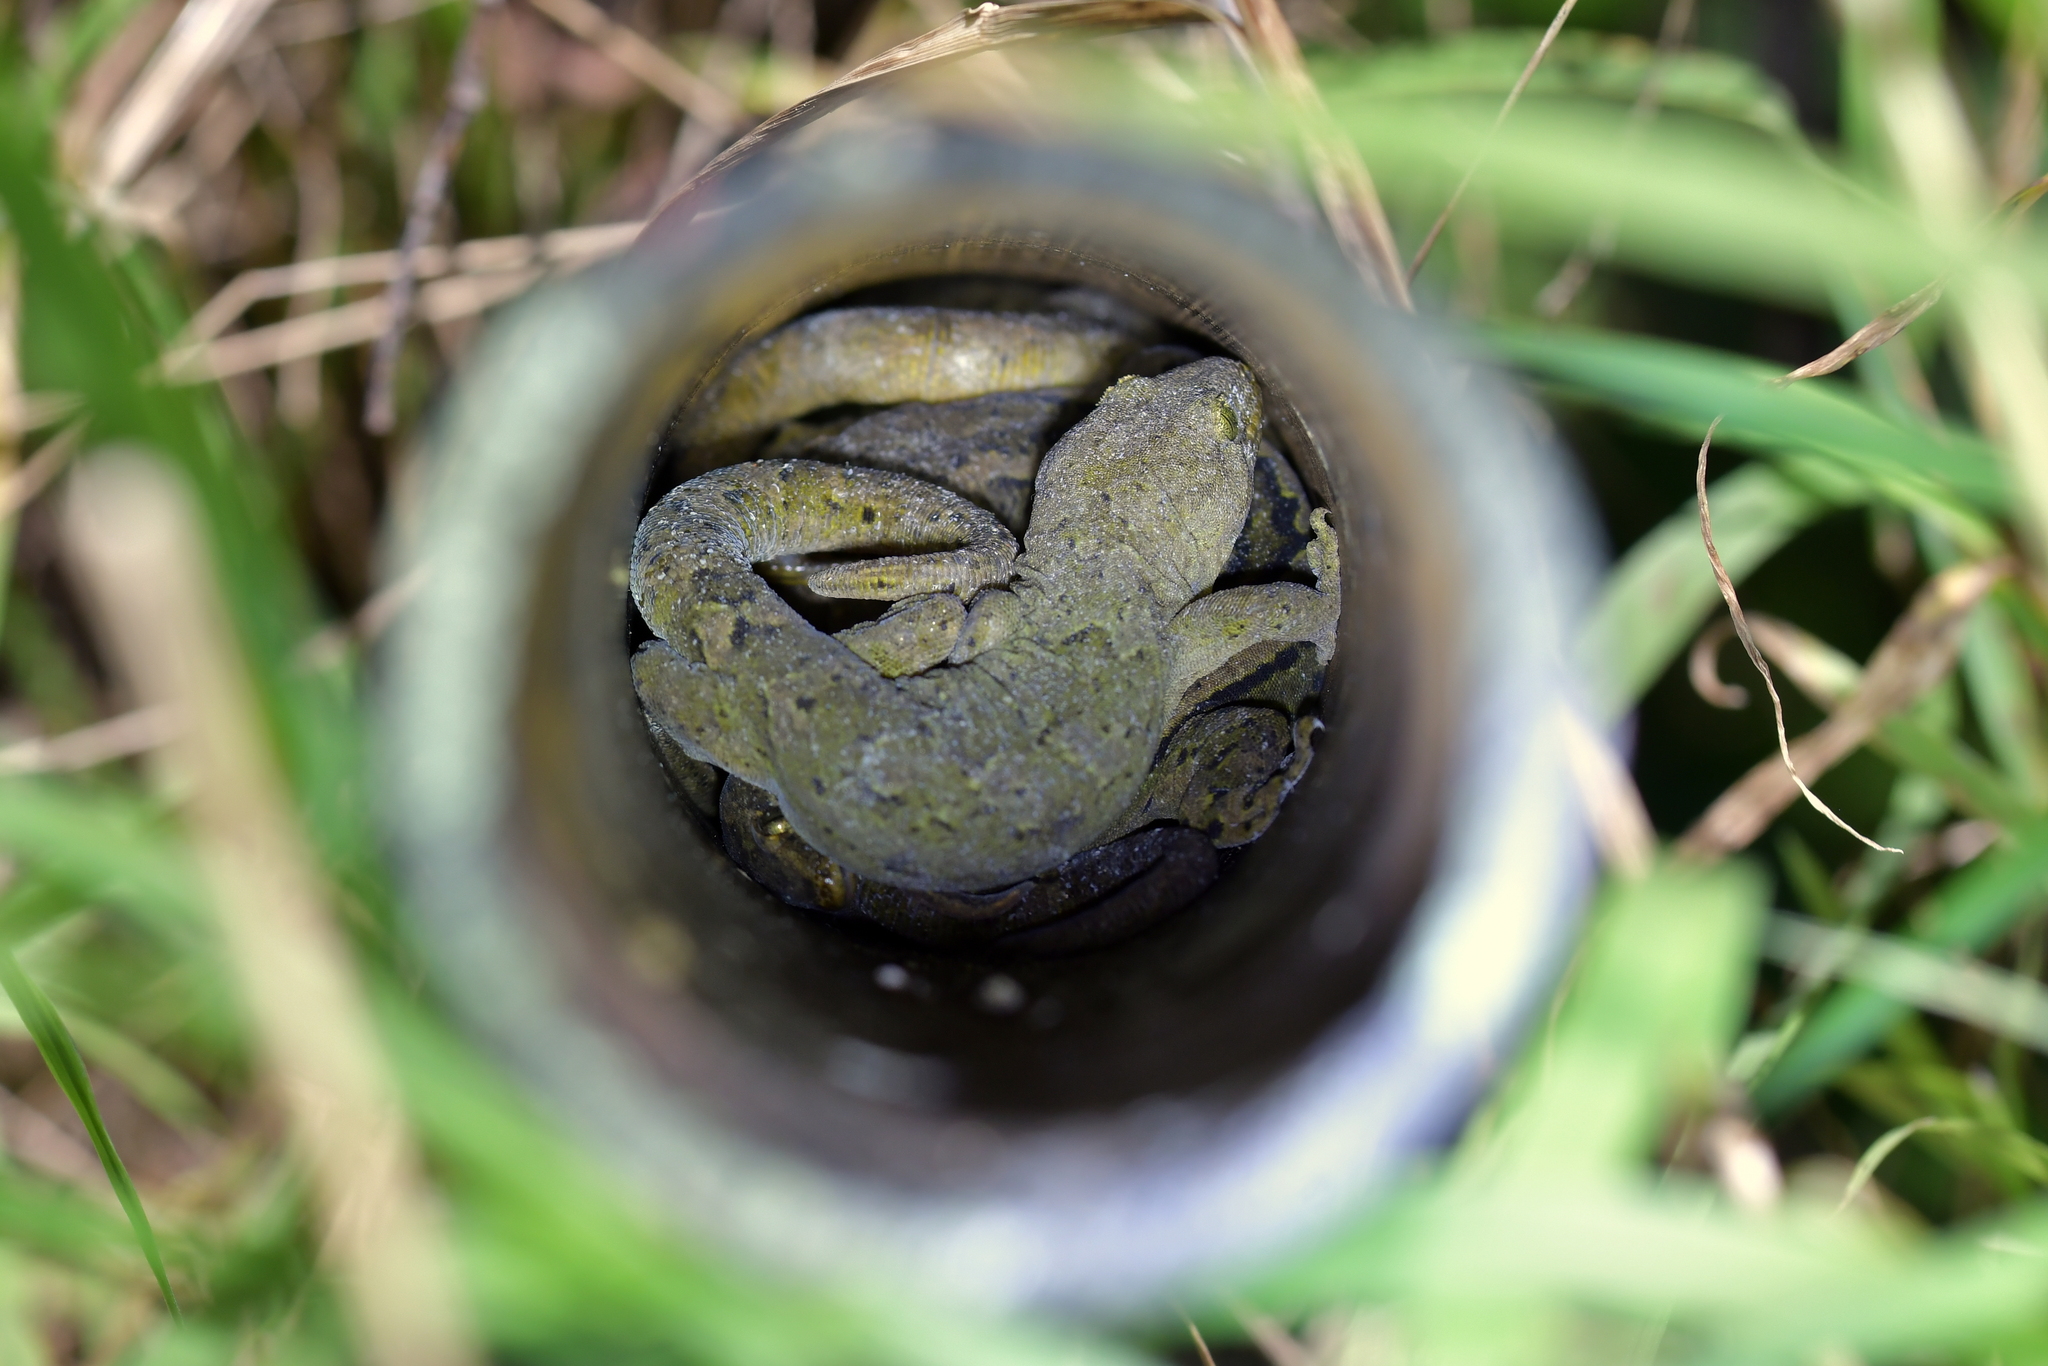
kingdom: Animalia
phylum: Chordata
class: Squamata
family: Diplodactylidae
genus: Woodworthia
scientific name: Woodworthia maculata
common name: Raukawa gecko
